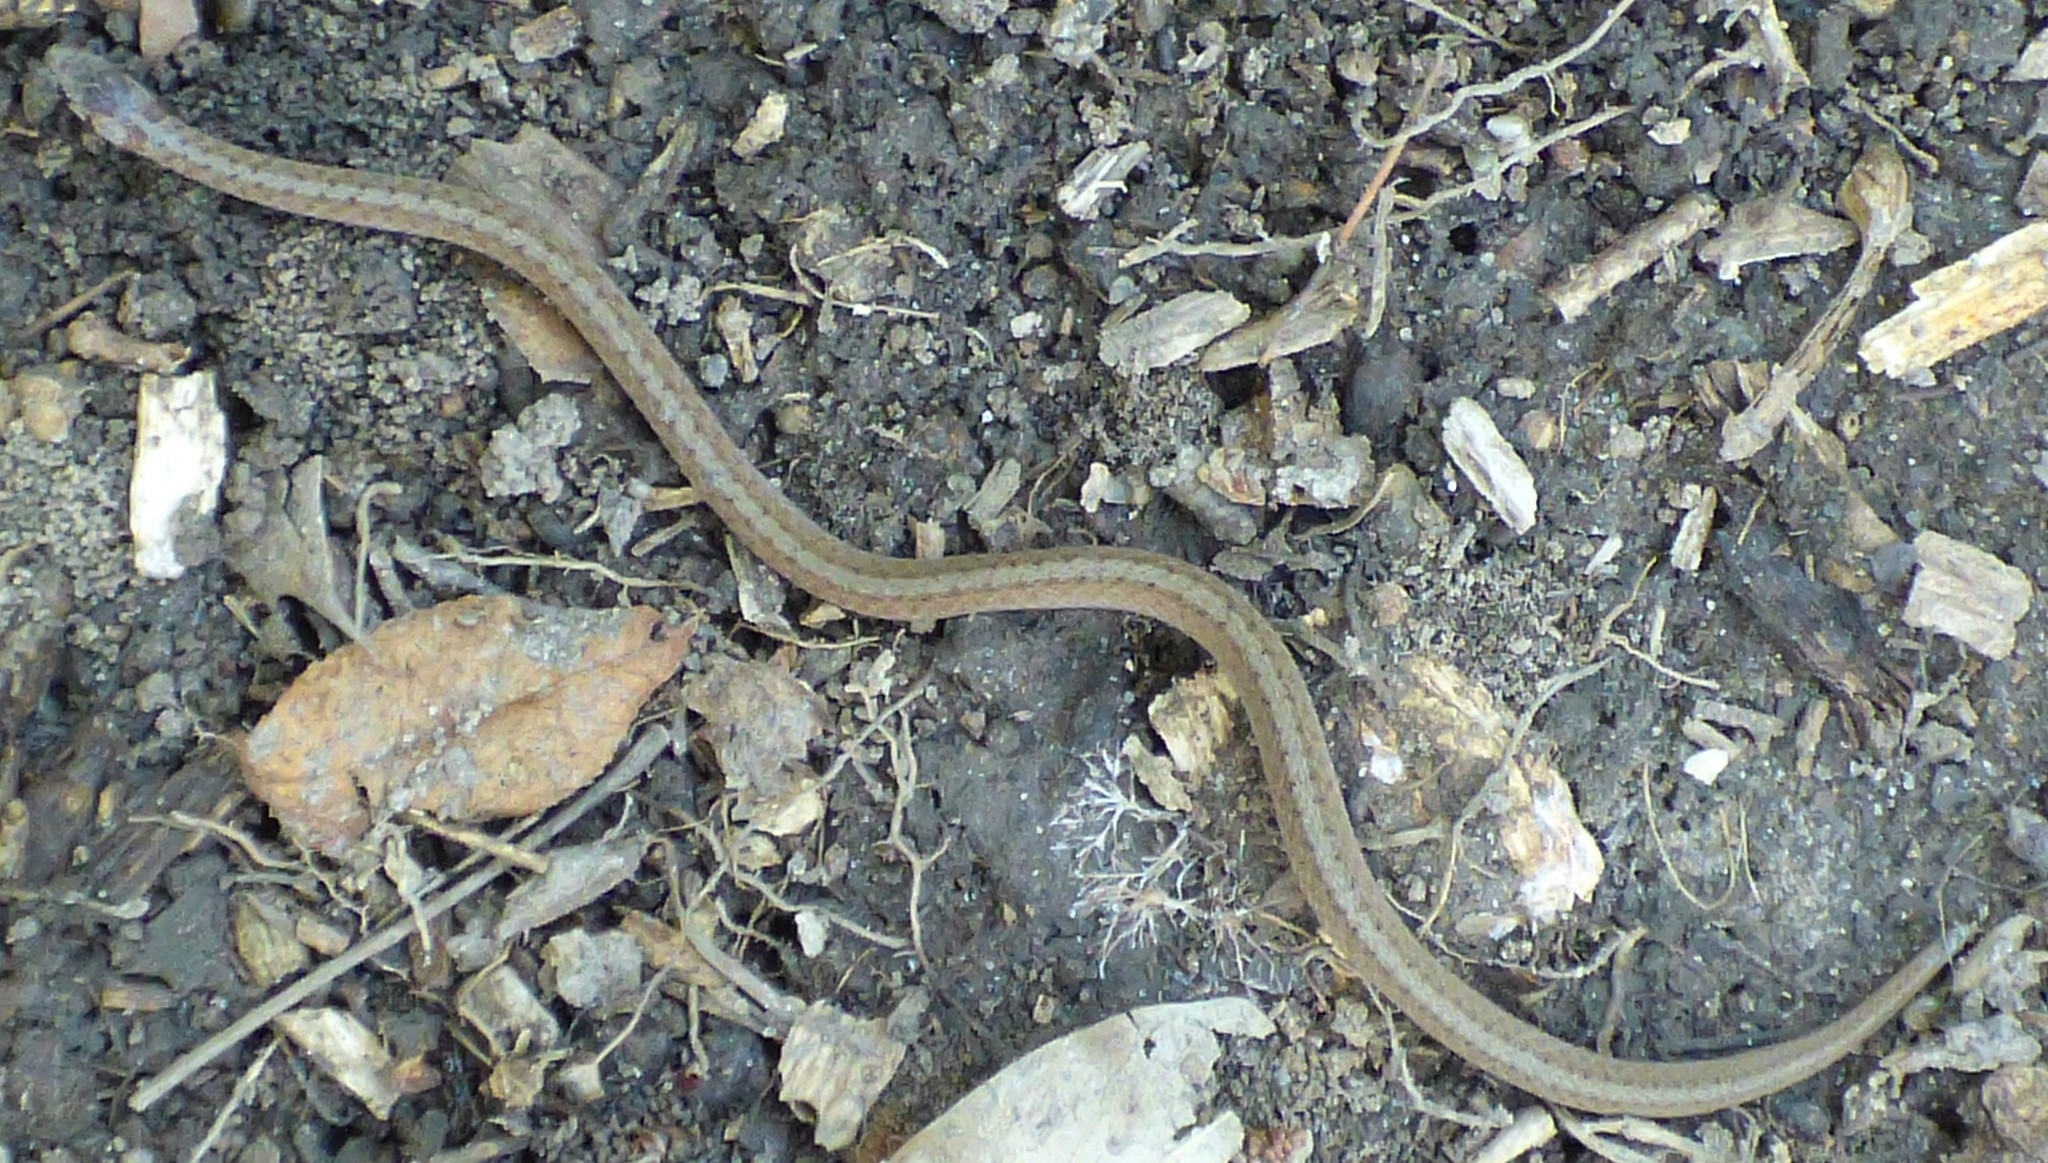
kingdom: Animalia
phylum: Chordata
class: Squamata
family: Colubridae
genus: Storeria
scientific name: Storeria dekayi
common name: (dekay’s) brown snake
